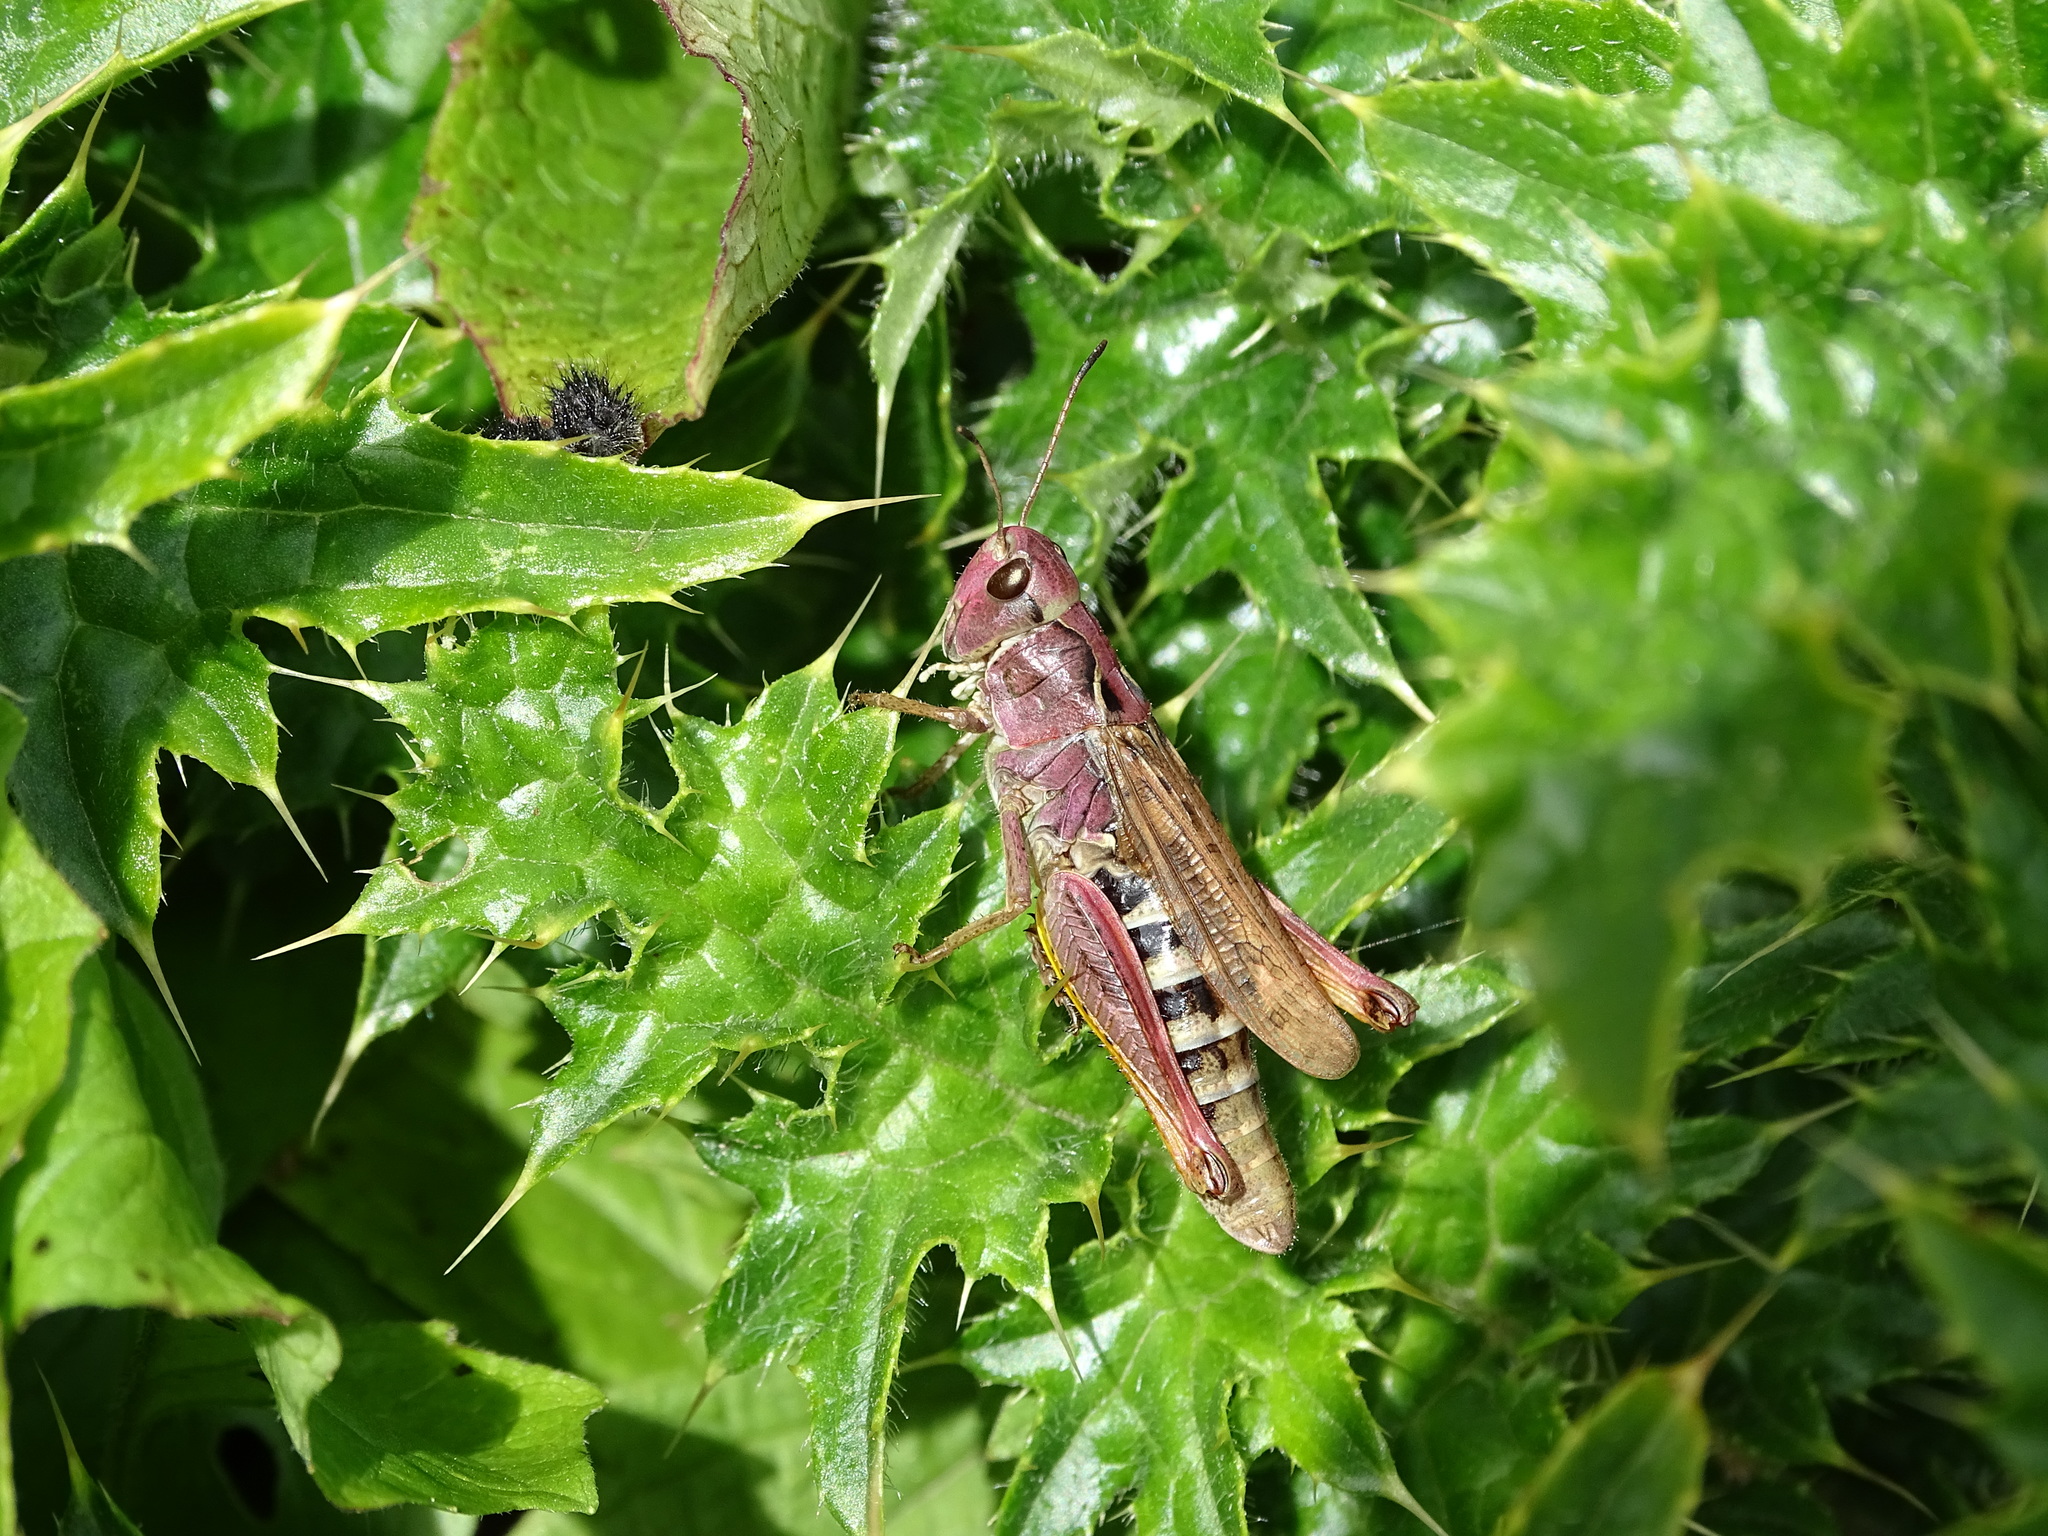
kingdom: Animalia
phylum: Arthropoda
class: Insecta
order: Orthoptera
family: Acrididae
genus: Gomphocerus
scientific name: Gomphocerus sibiricus
